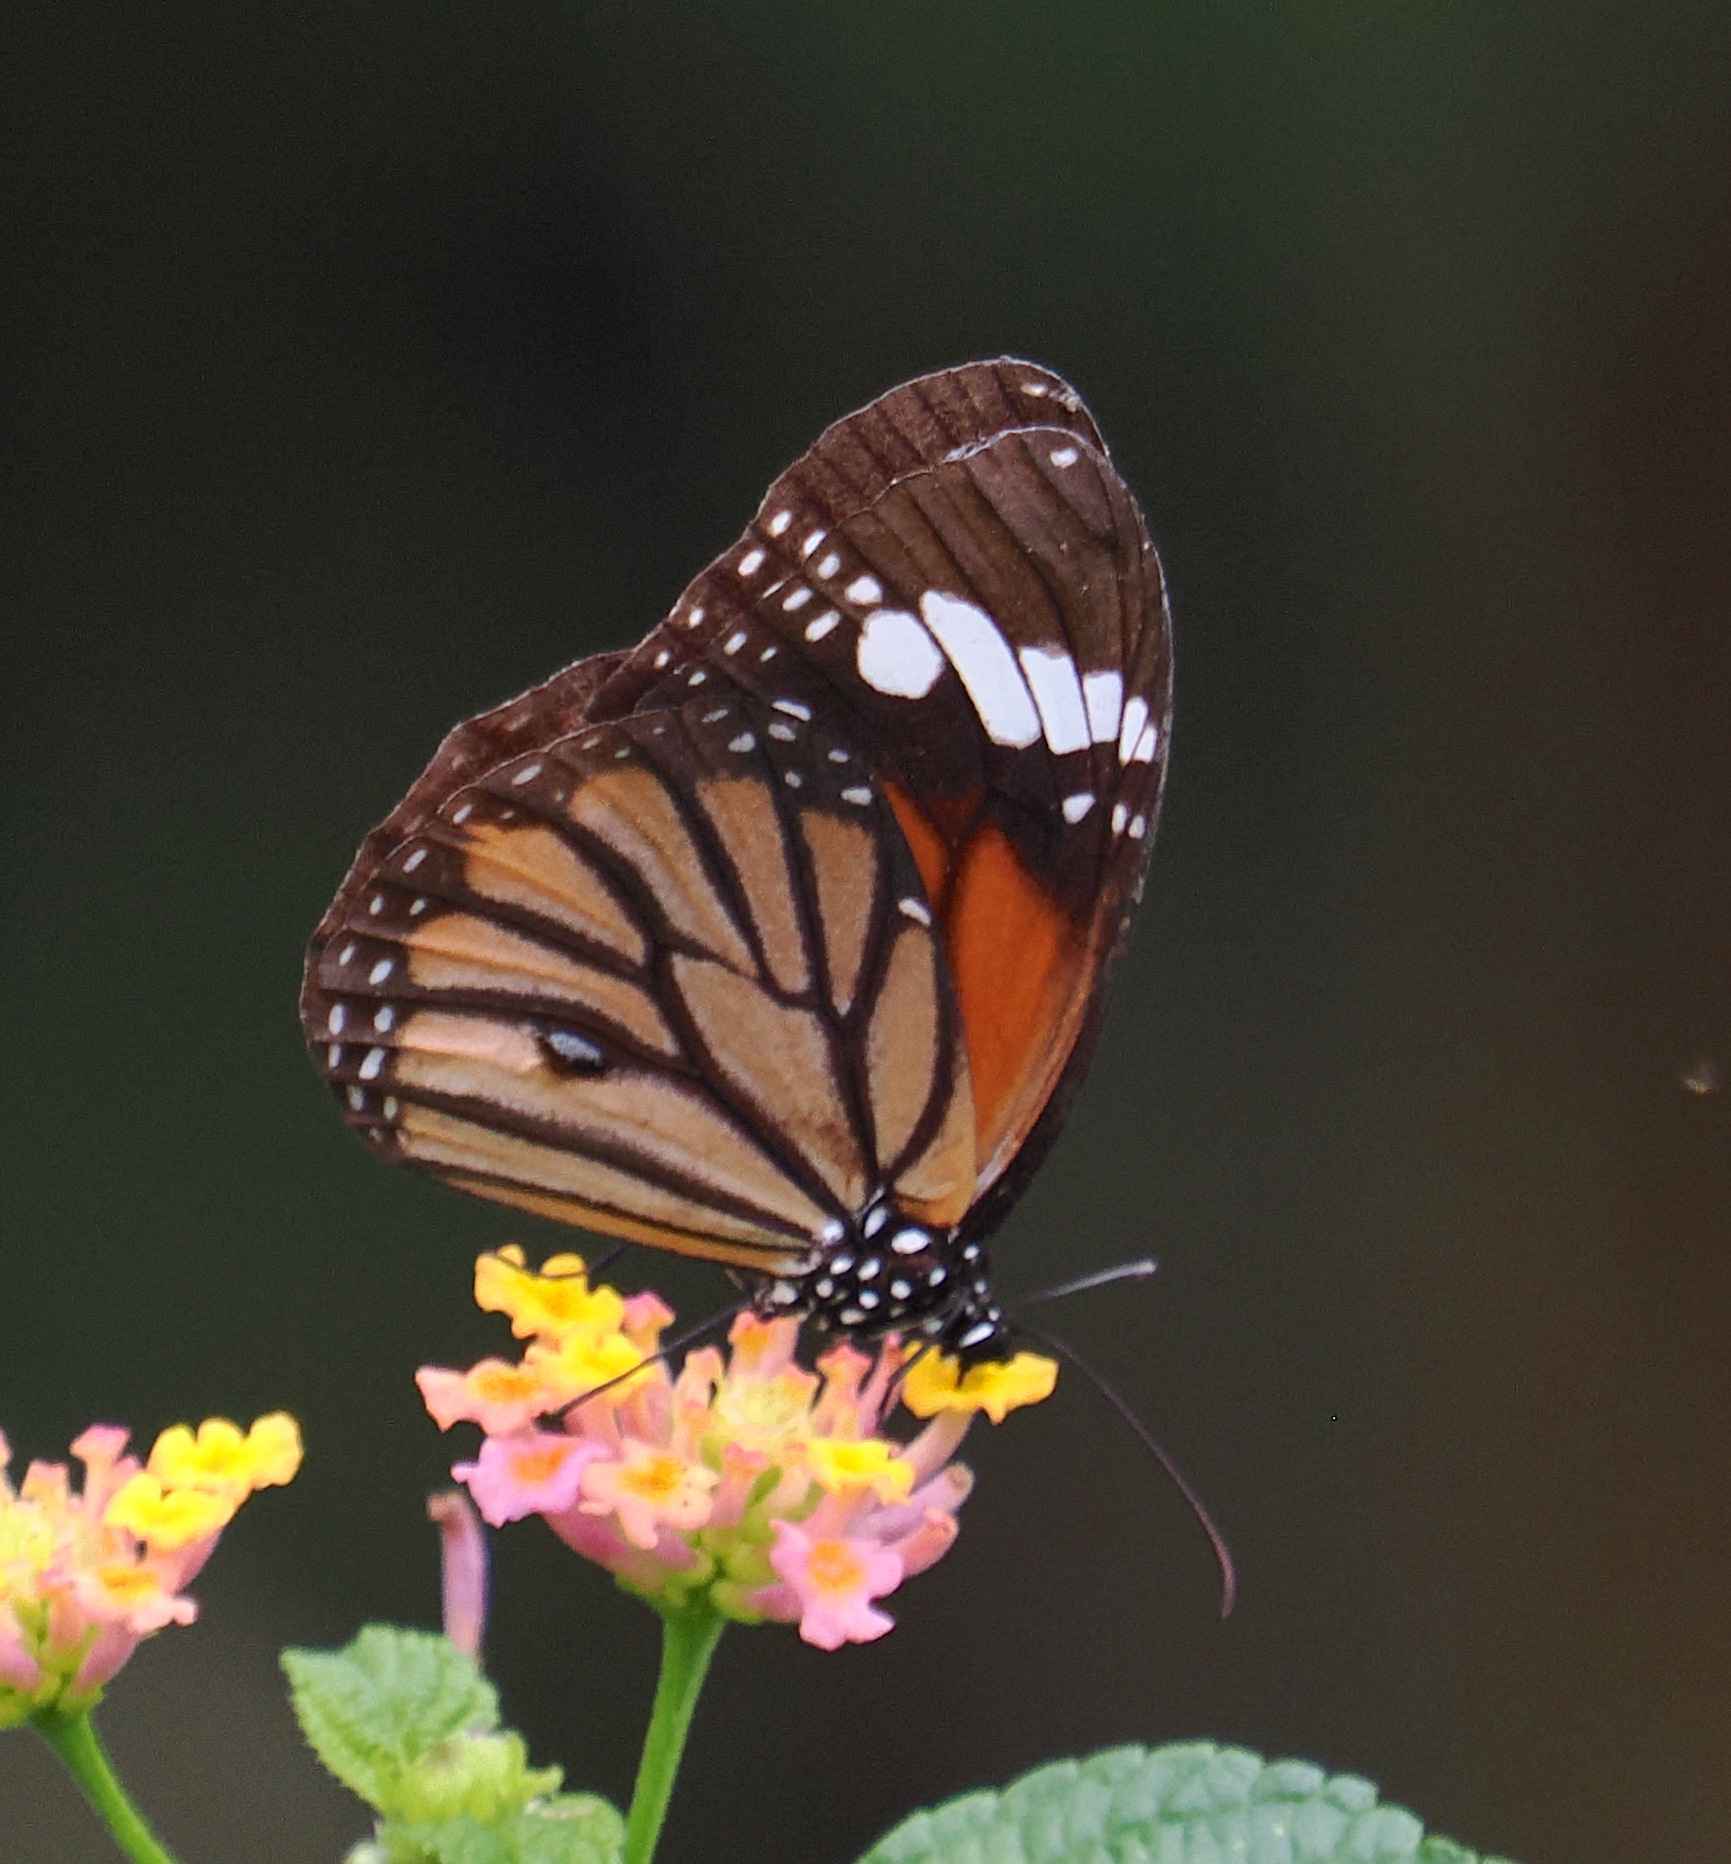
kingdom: Animalia
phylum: Arthropoda
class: Insecta
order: Lepidoptera
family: Nymphalidae
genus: Danaus
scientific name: Danaus genutia
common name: Common tiger butterfly
